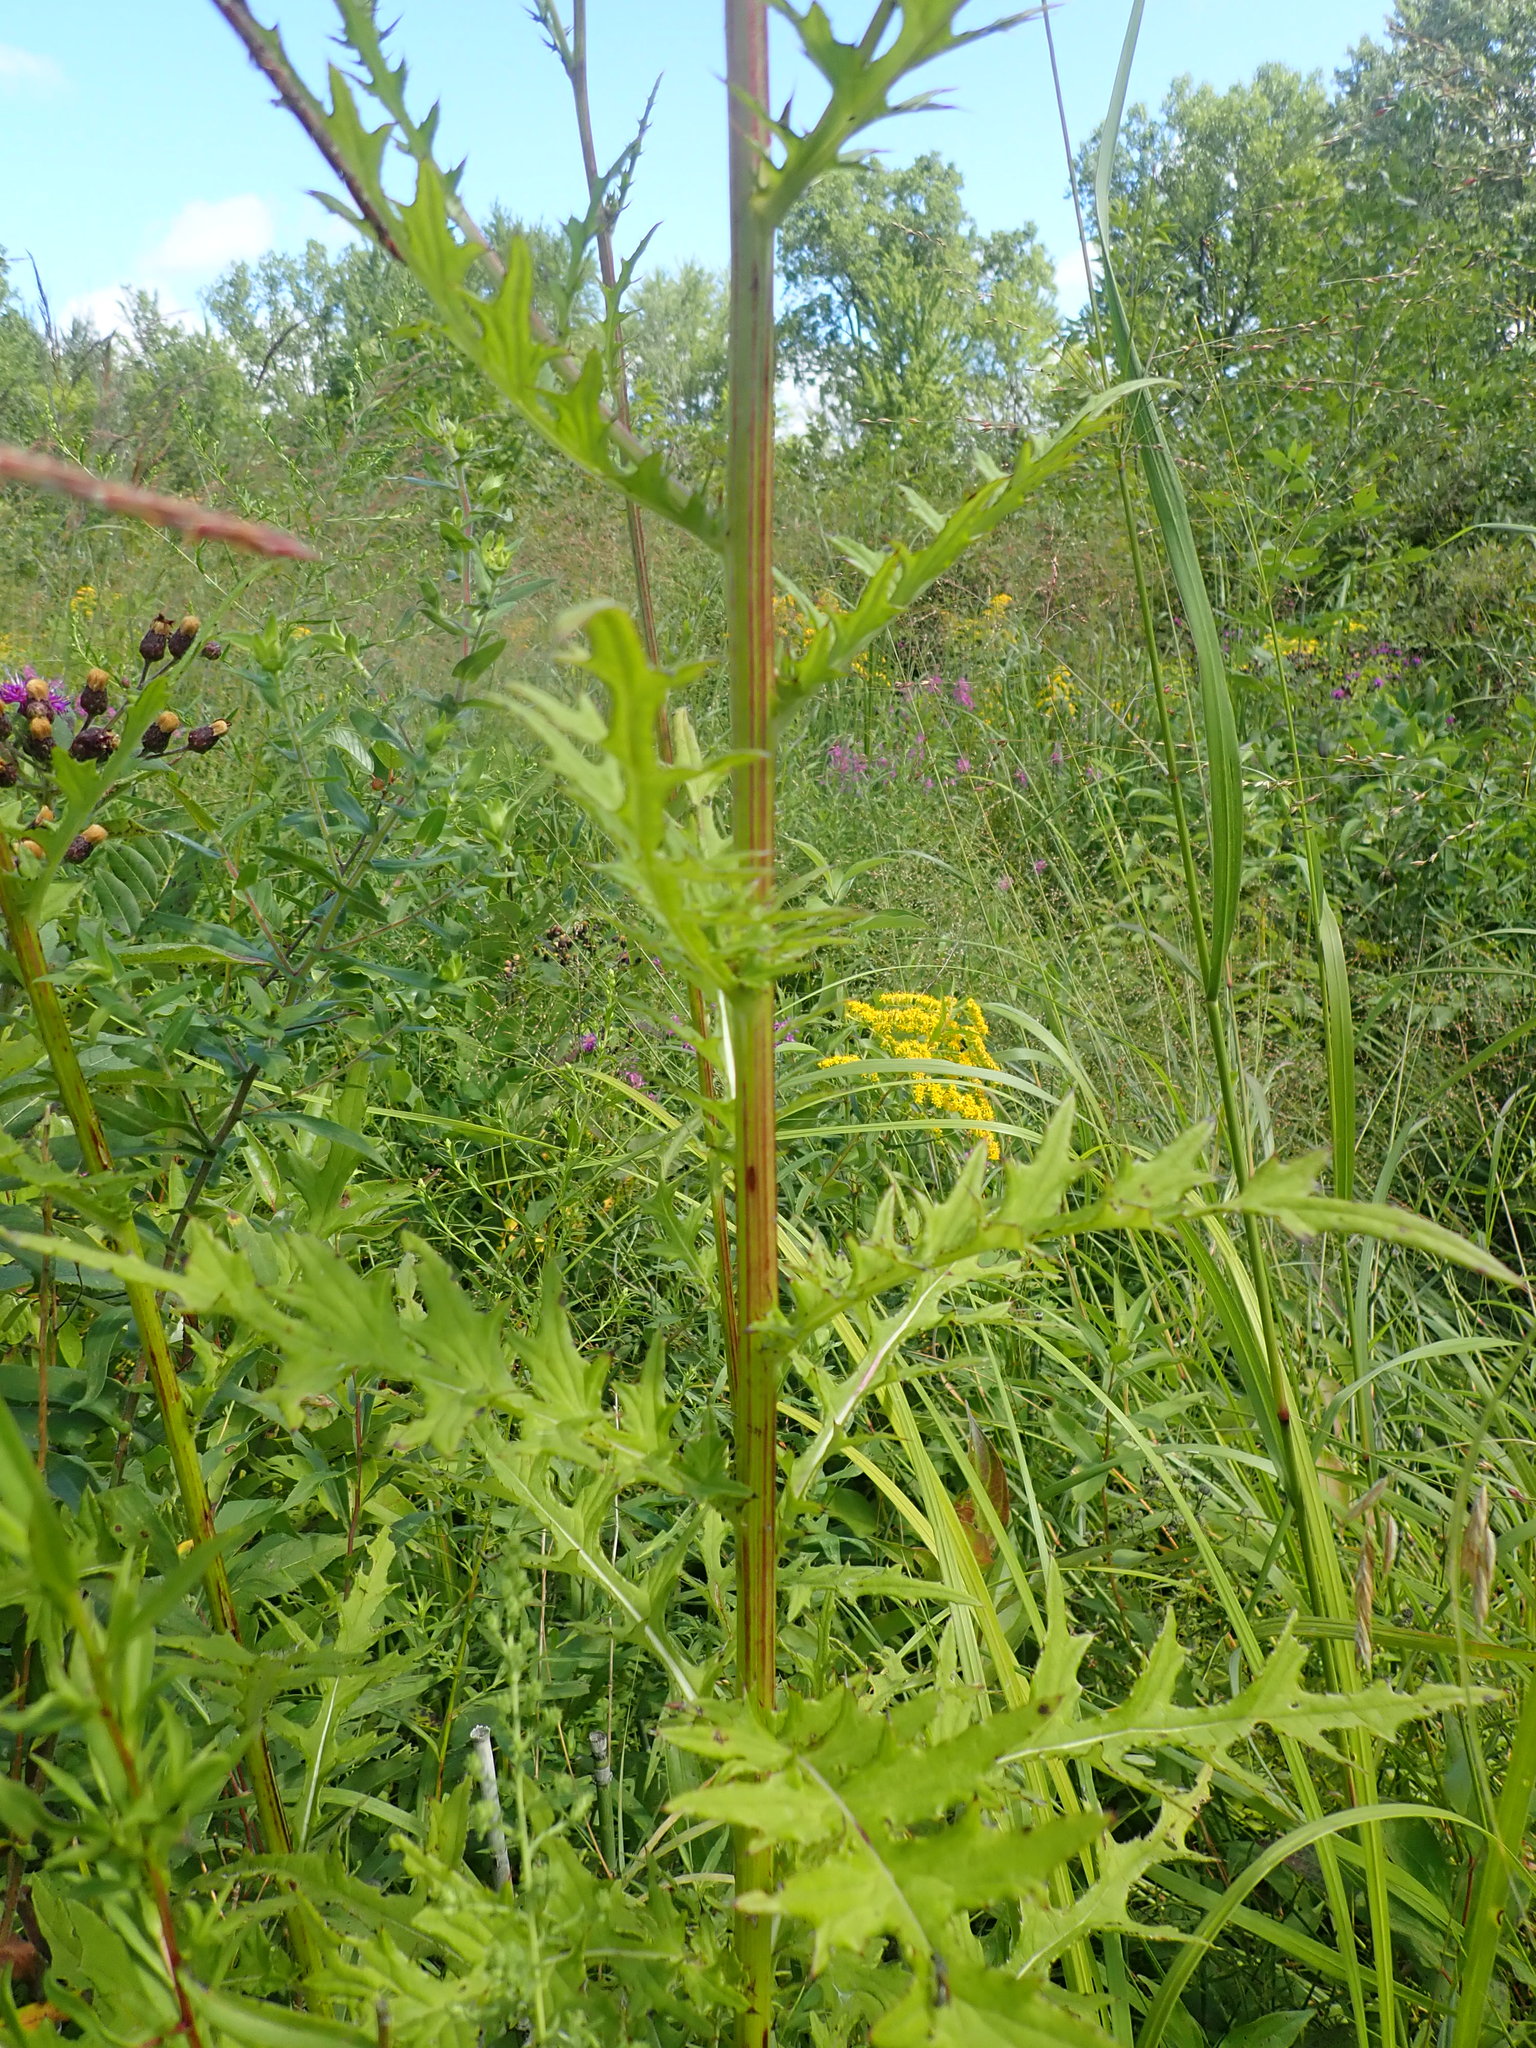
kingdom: Plantae
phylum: Tracheophyta
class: Magnoliopsida
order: Asterales
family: Asteraceae
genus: Cirsium
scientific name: Cirsium muticum
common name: Dunce-nettle
